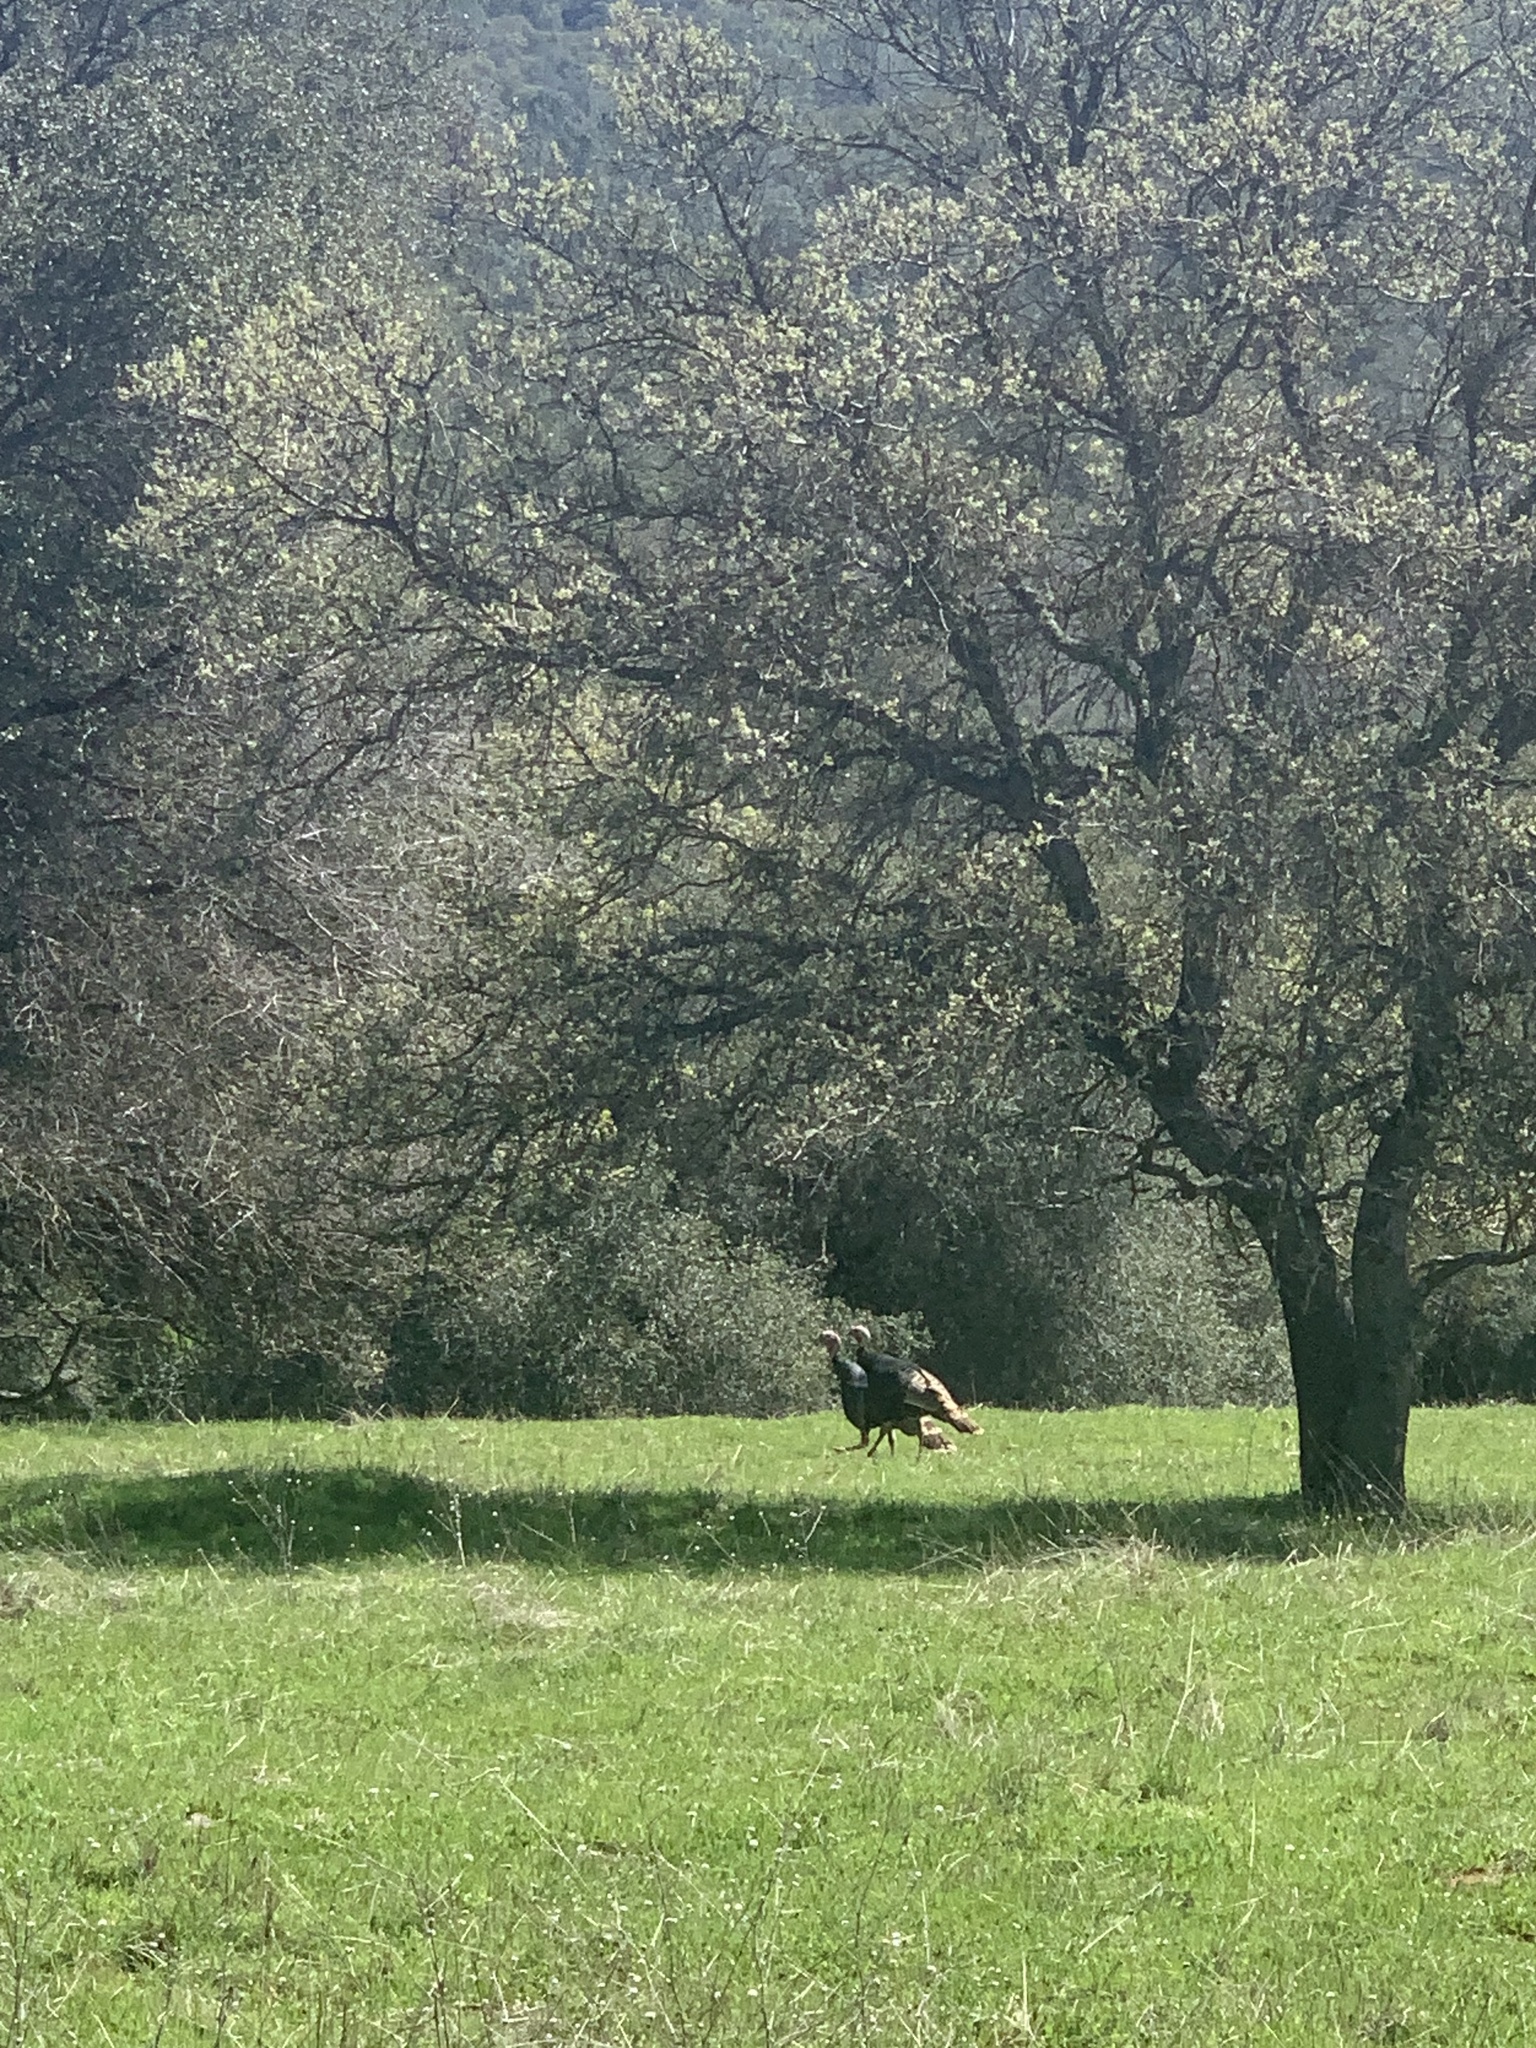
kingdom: Animalia
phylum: Chordata
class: Aves
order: Galliformes
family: Phasianidae
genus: Meleagris
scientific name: Meleagris gallopavo
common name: Wild turkey
